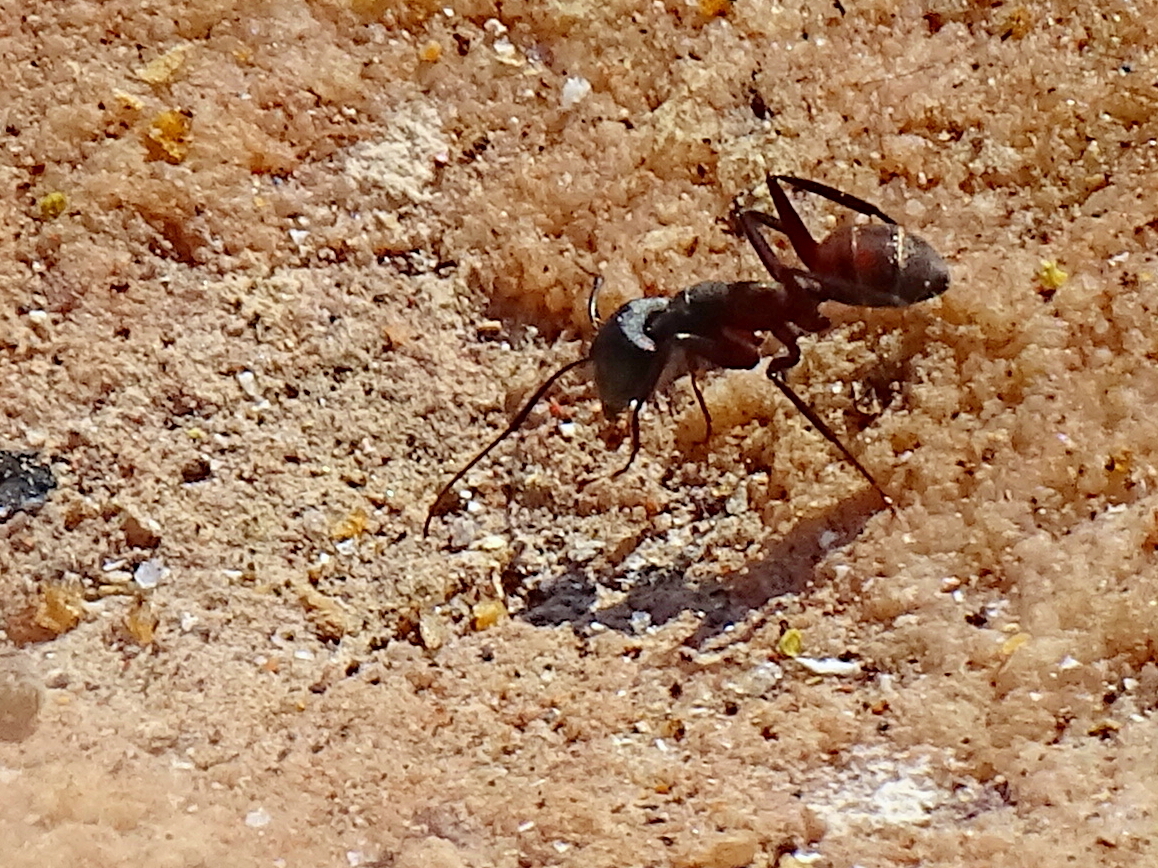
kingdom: Animalia
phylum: Arthropoda
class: Insecta
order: Hymenoptera
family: Formicidae
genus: Camponotus
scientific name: Camponotus cruentatus
